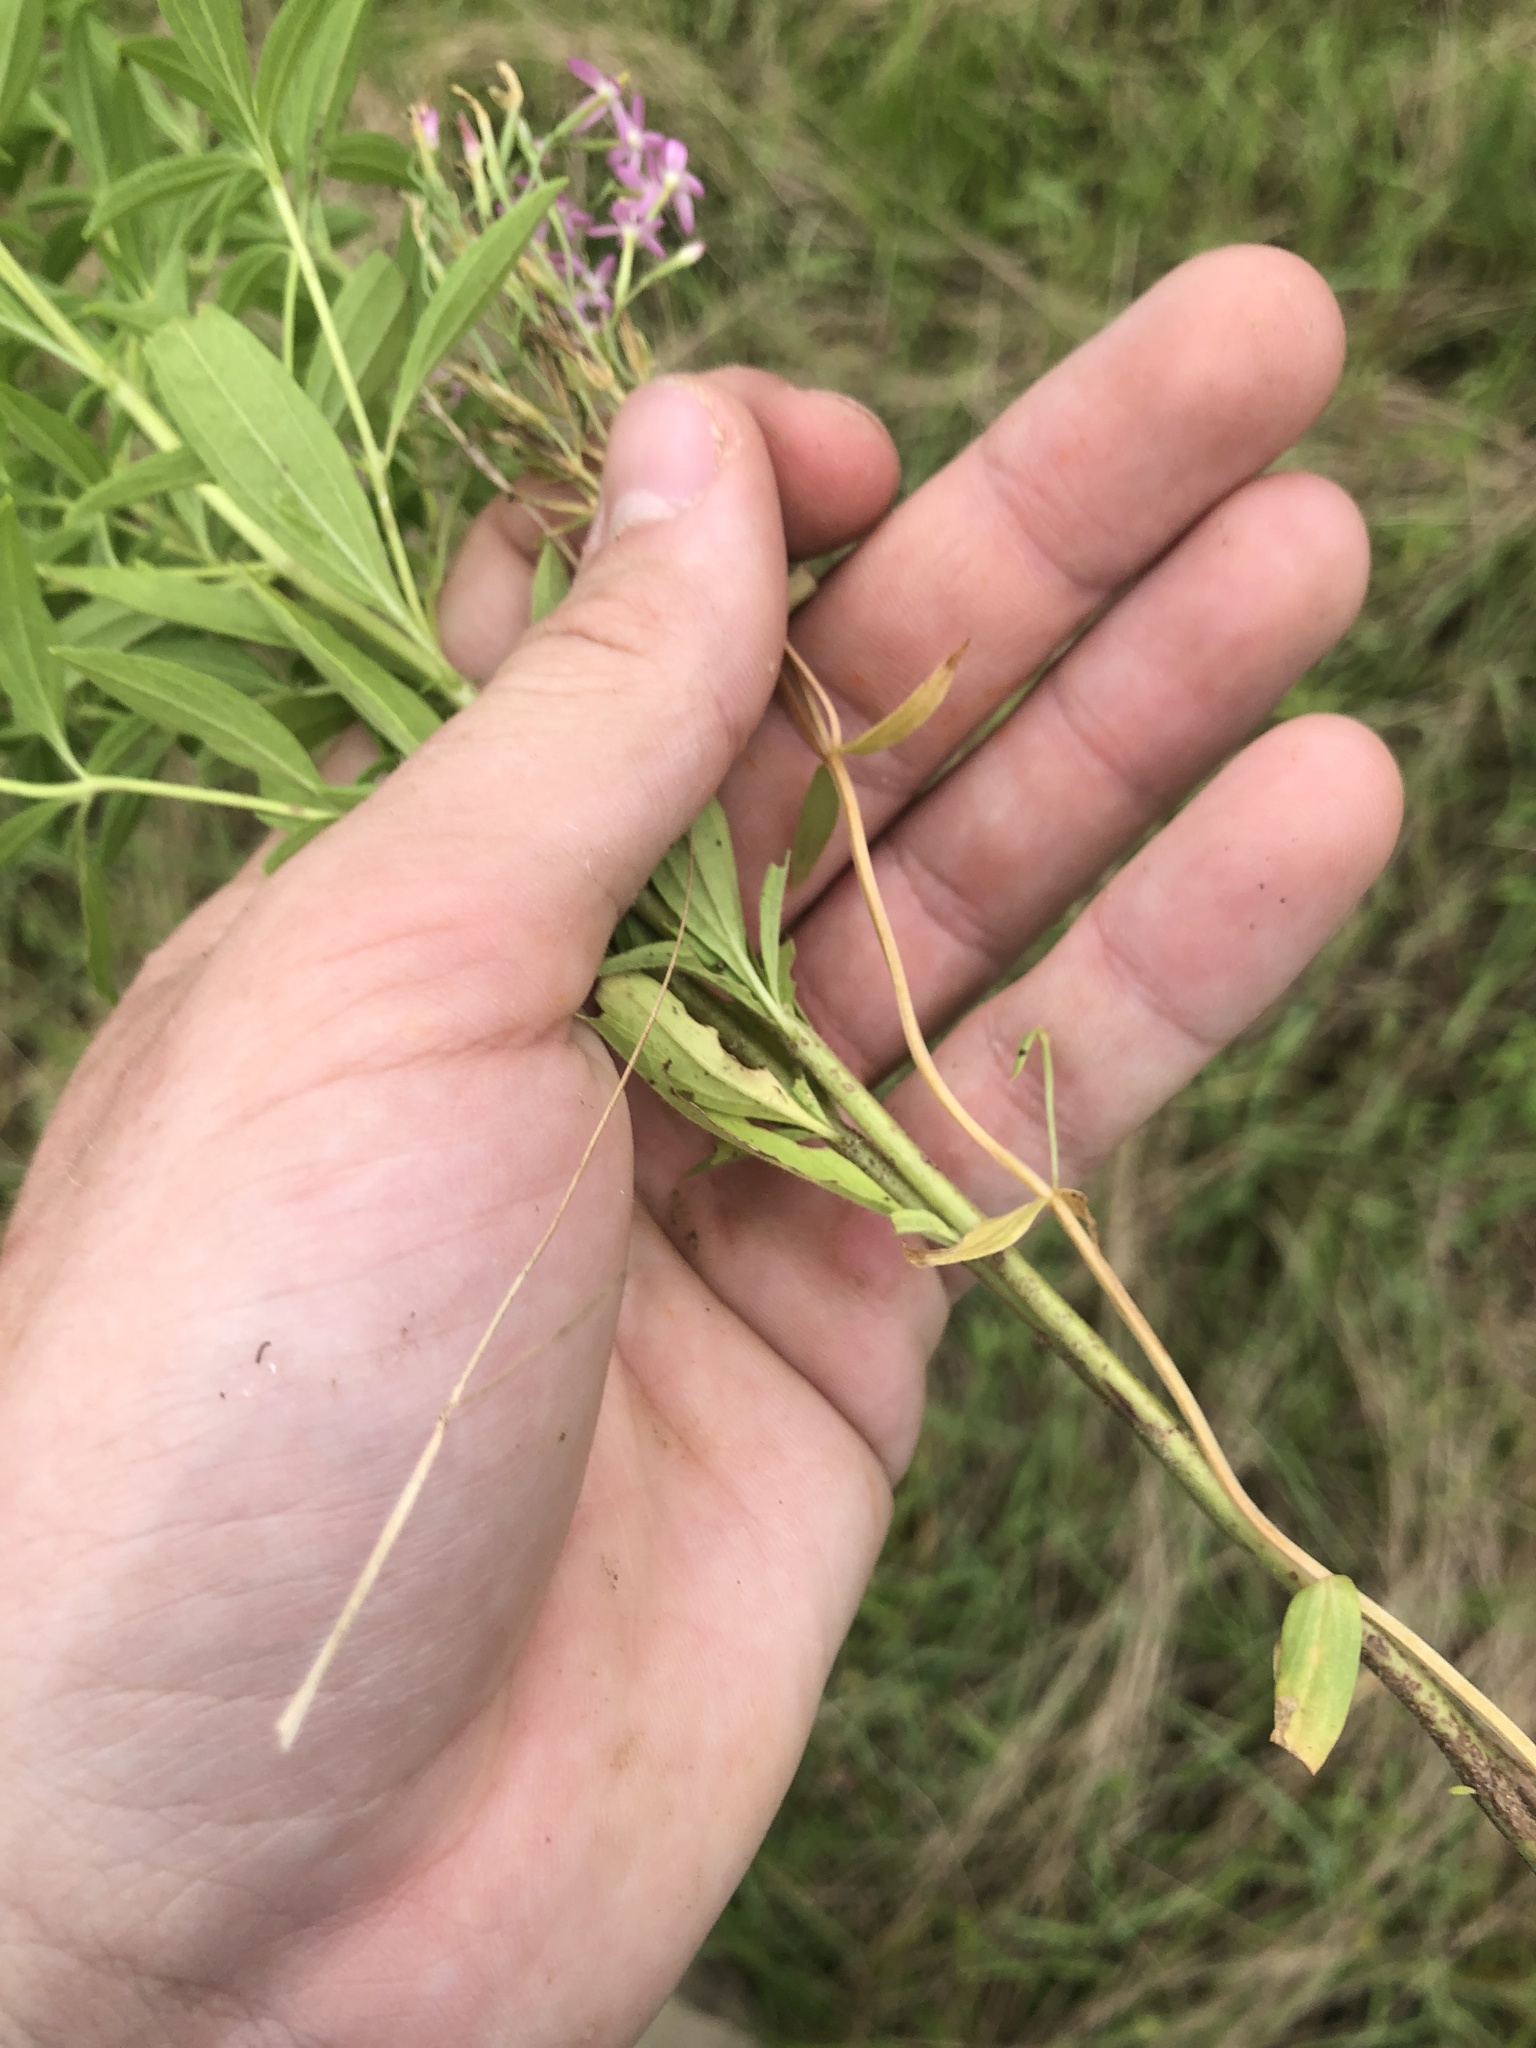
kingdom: Plantae
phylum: Tracheophyta
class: Magnoliopsida
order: Lamiales
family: Lamiaceae
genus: Trichostema
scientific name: Trichostema brachiatum
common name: False pennyroyal
